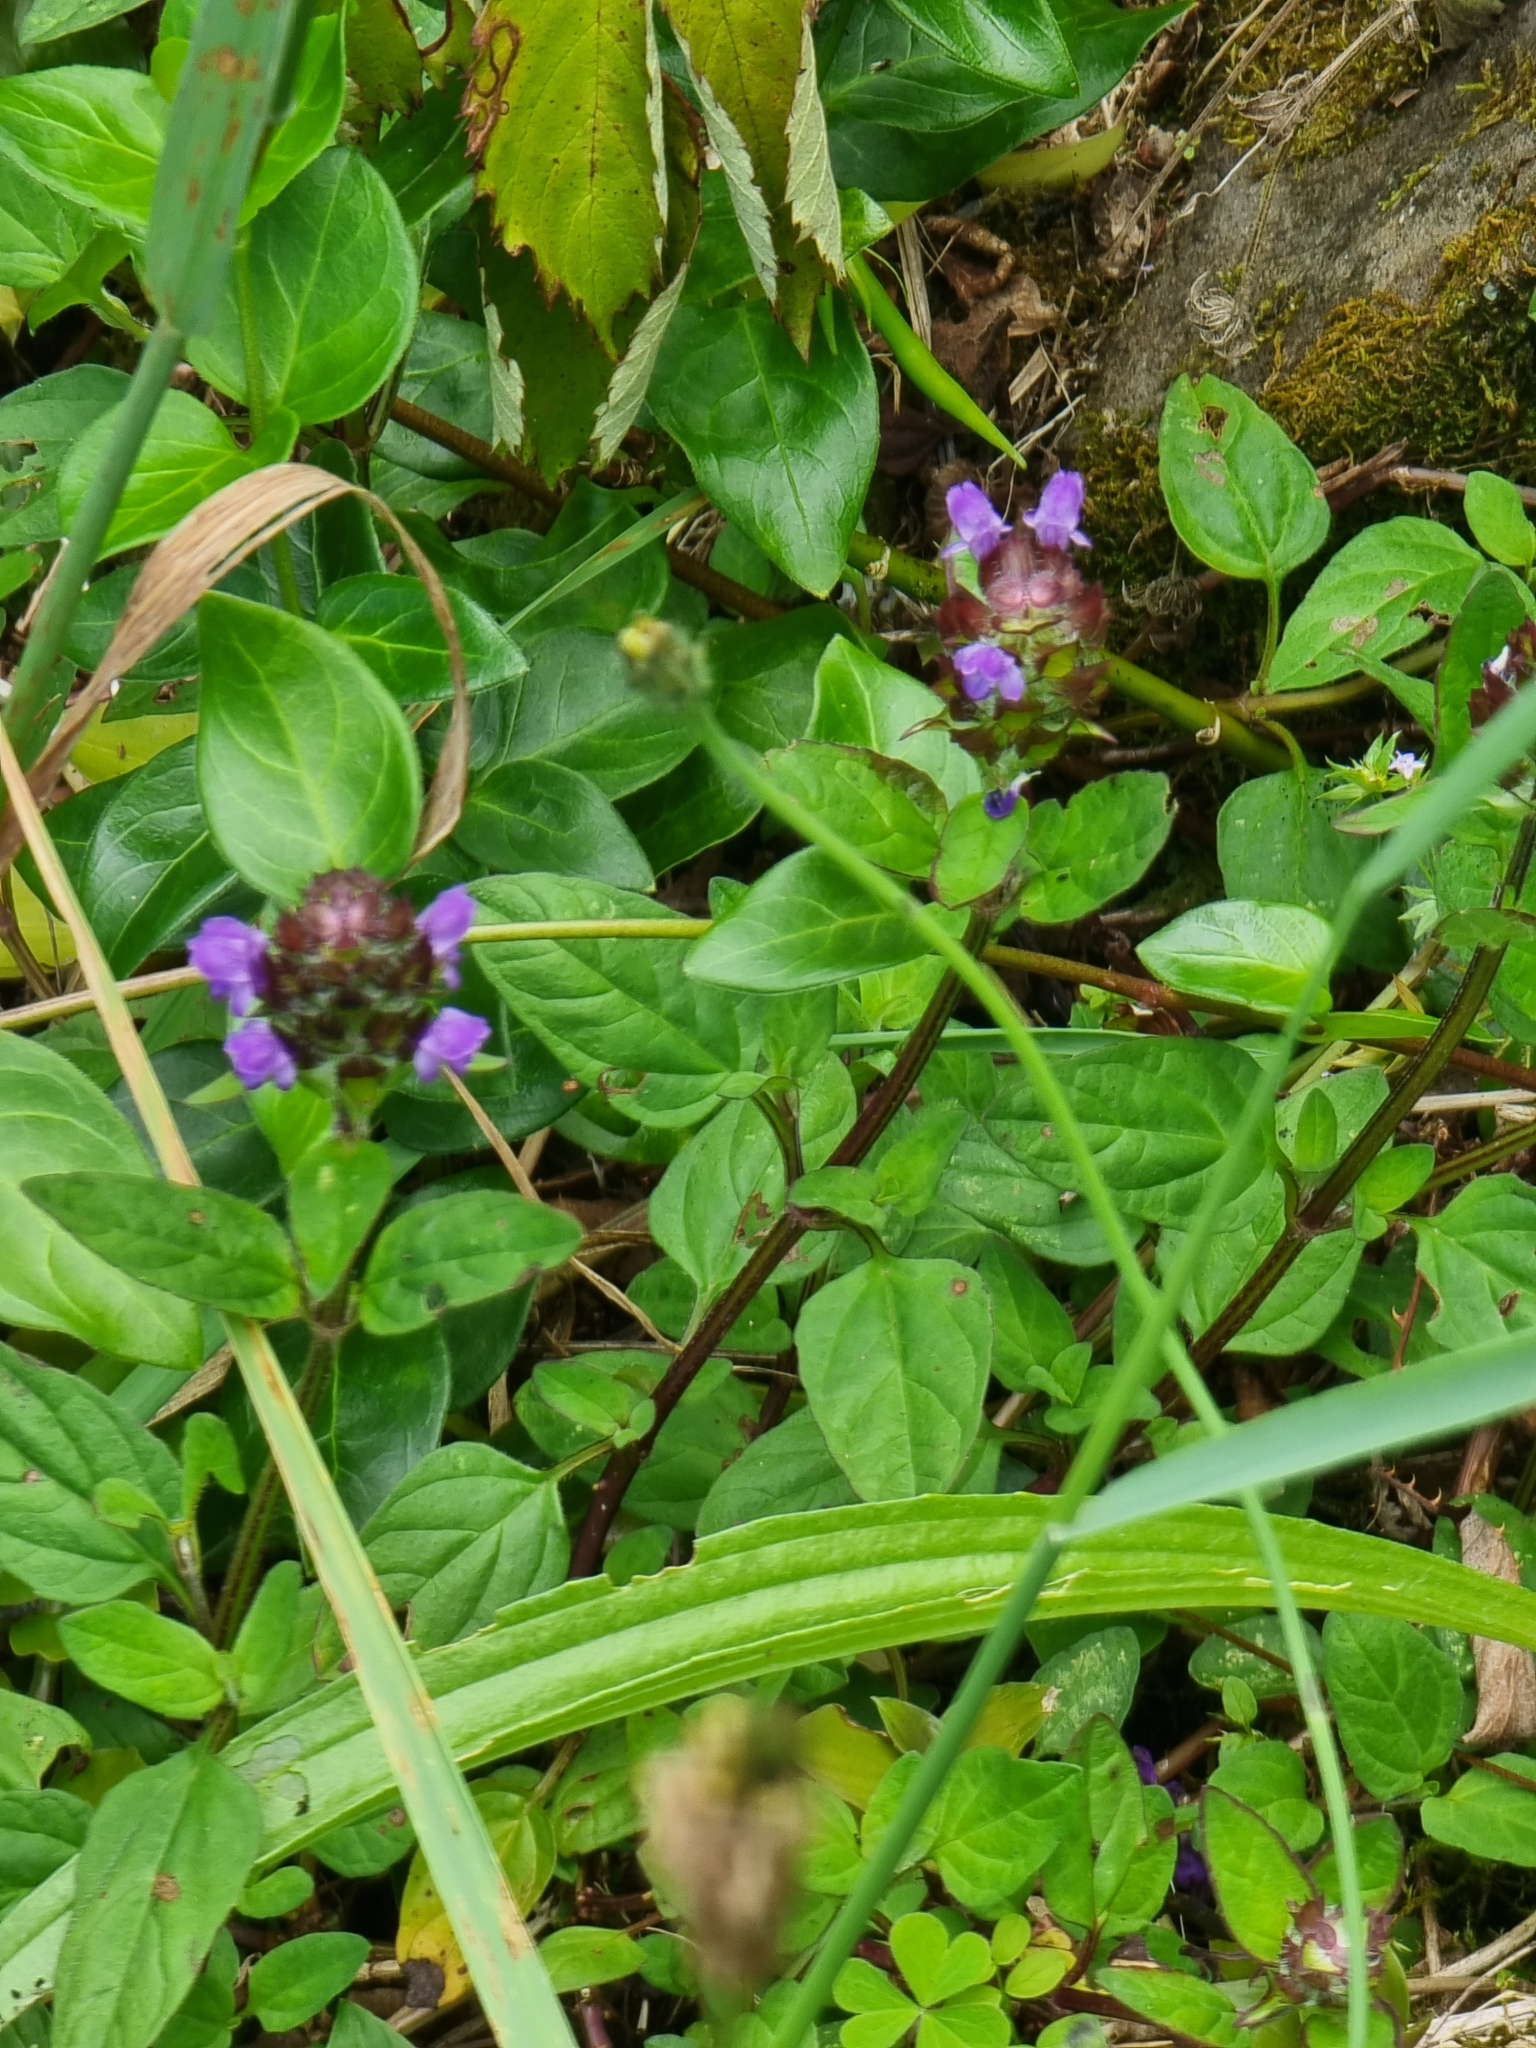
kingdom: Plantae
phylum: Tracheophyta
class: Magnoliopsida
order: Lamiales
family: Lamiaceae
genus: Prunella
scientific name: Prunella vulgaris
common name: Heal-all
